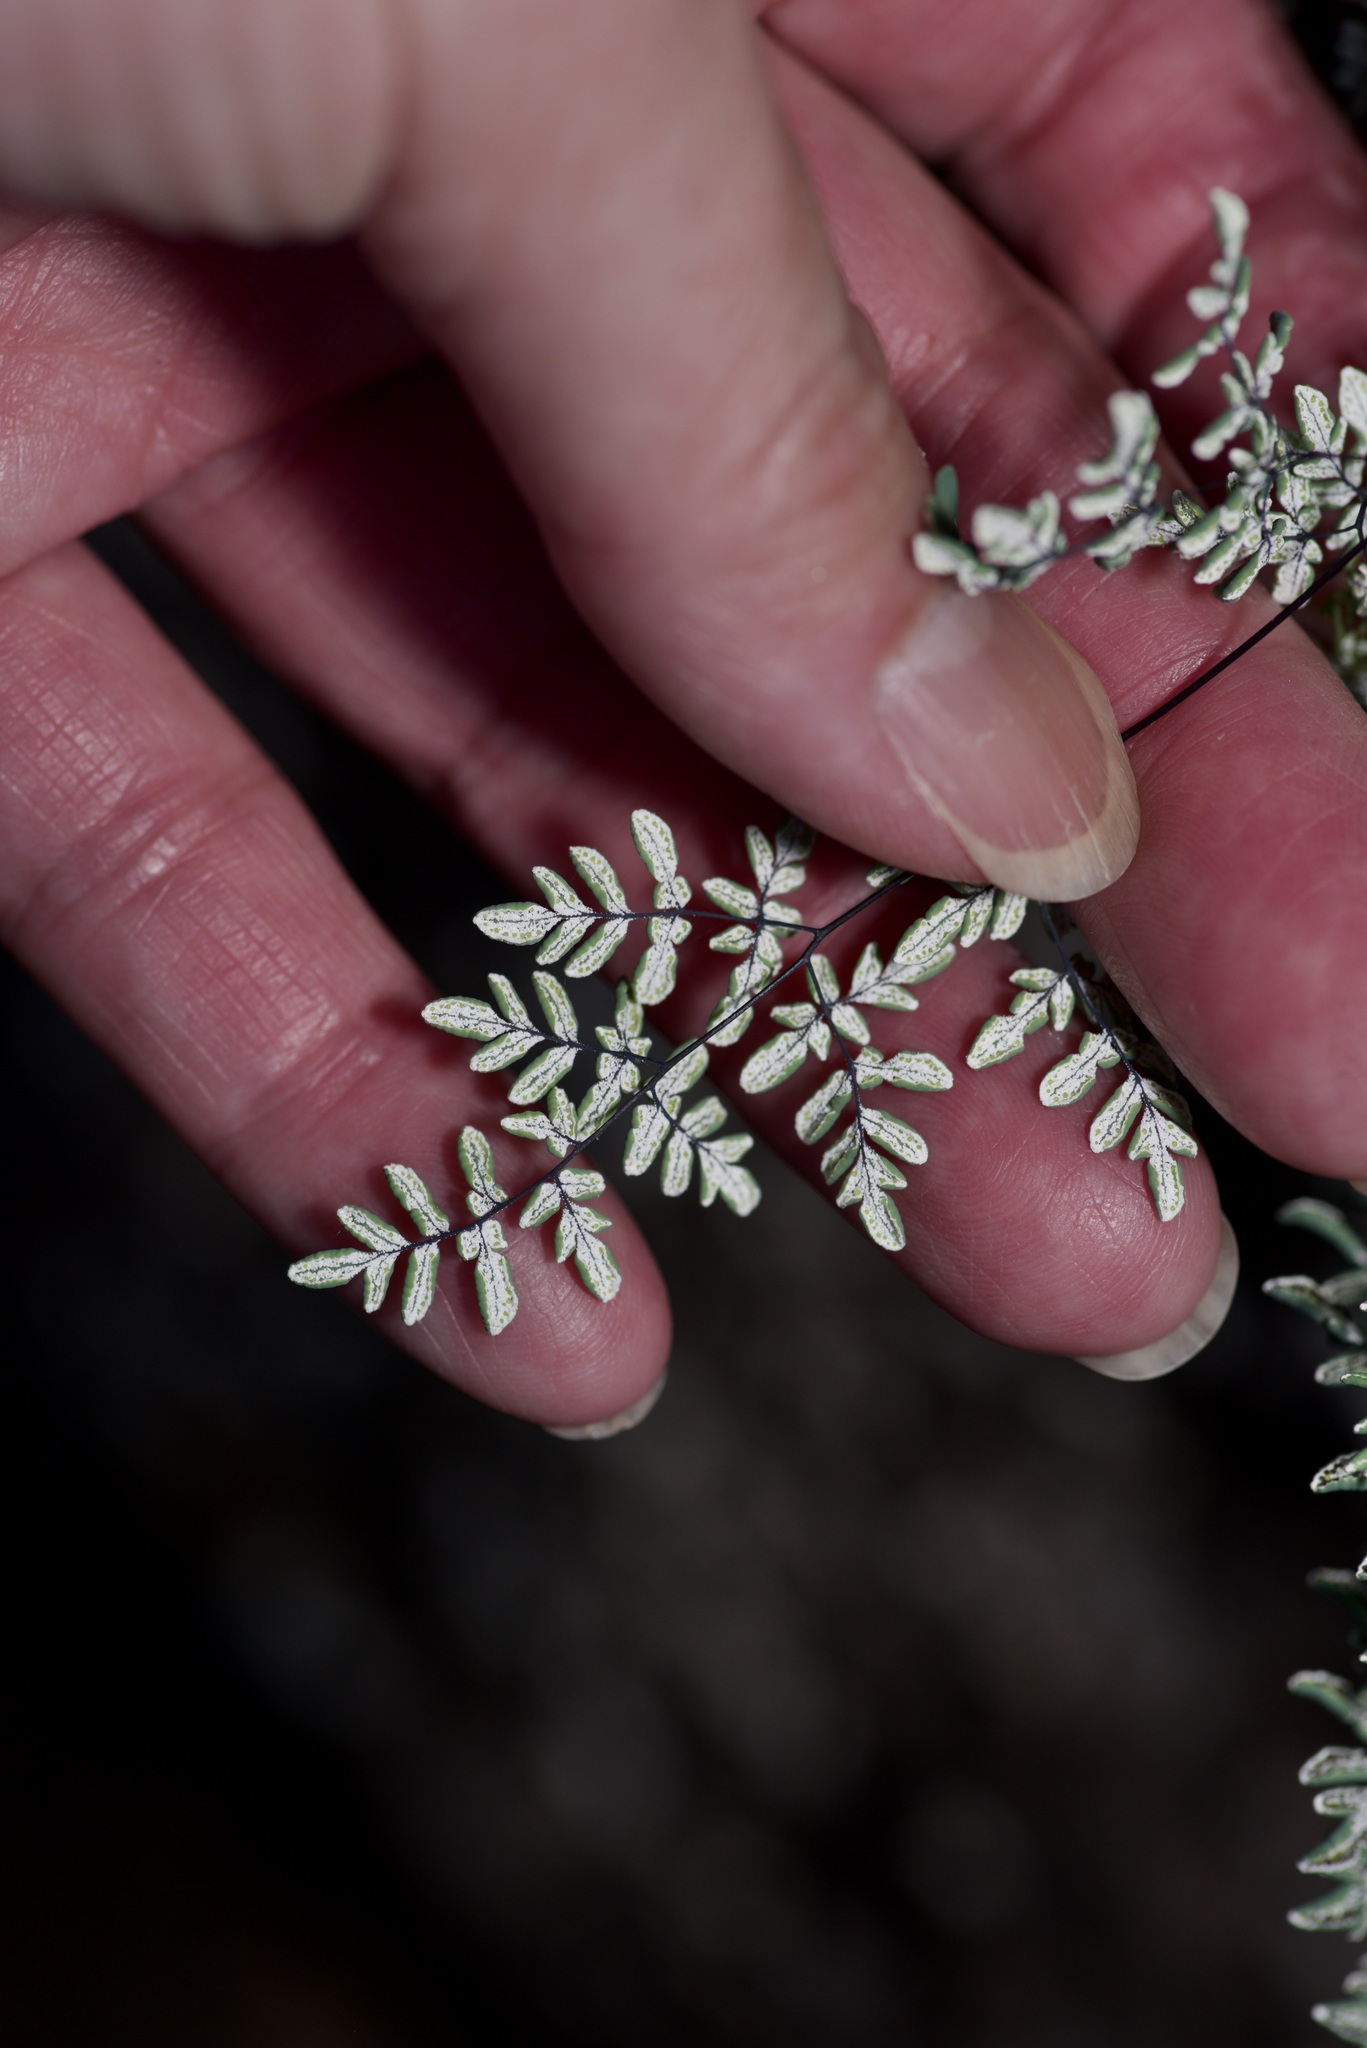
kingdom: Plantae
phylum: Tracheophyta
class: Polypodiopsida
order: Polypodiales
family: Pteridaceae
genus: Argyrochosma
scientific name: Argyrochosma dealbata
